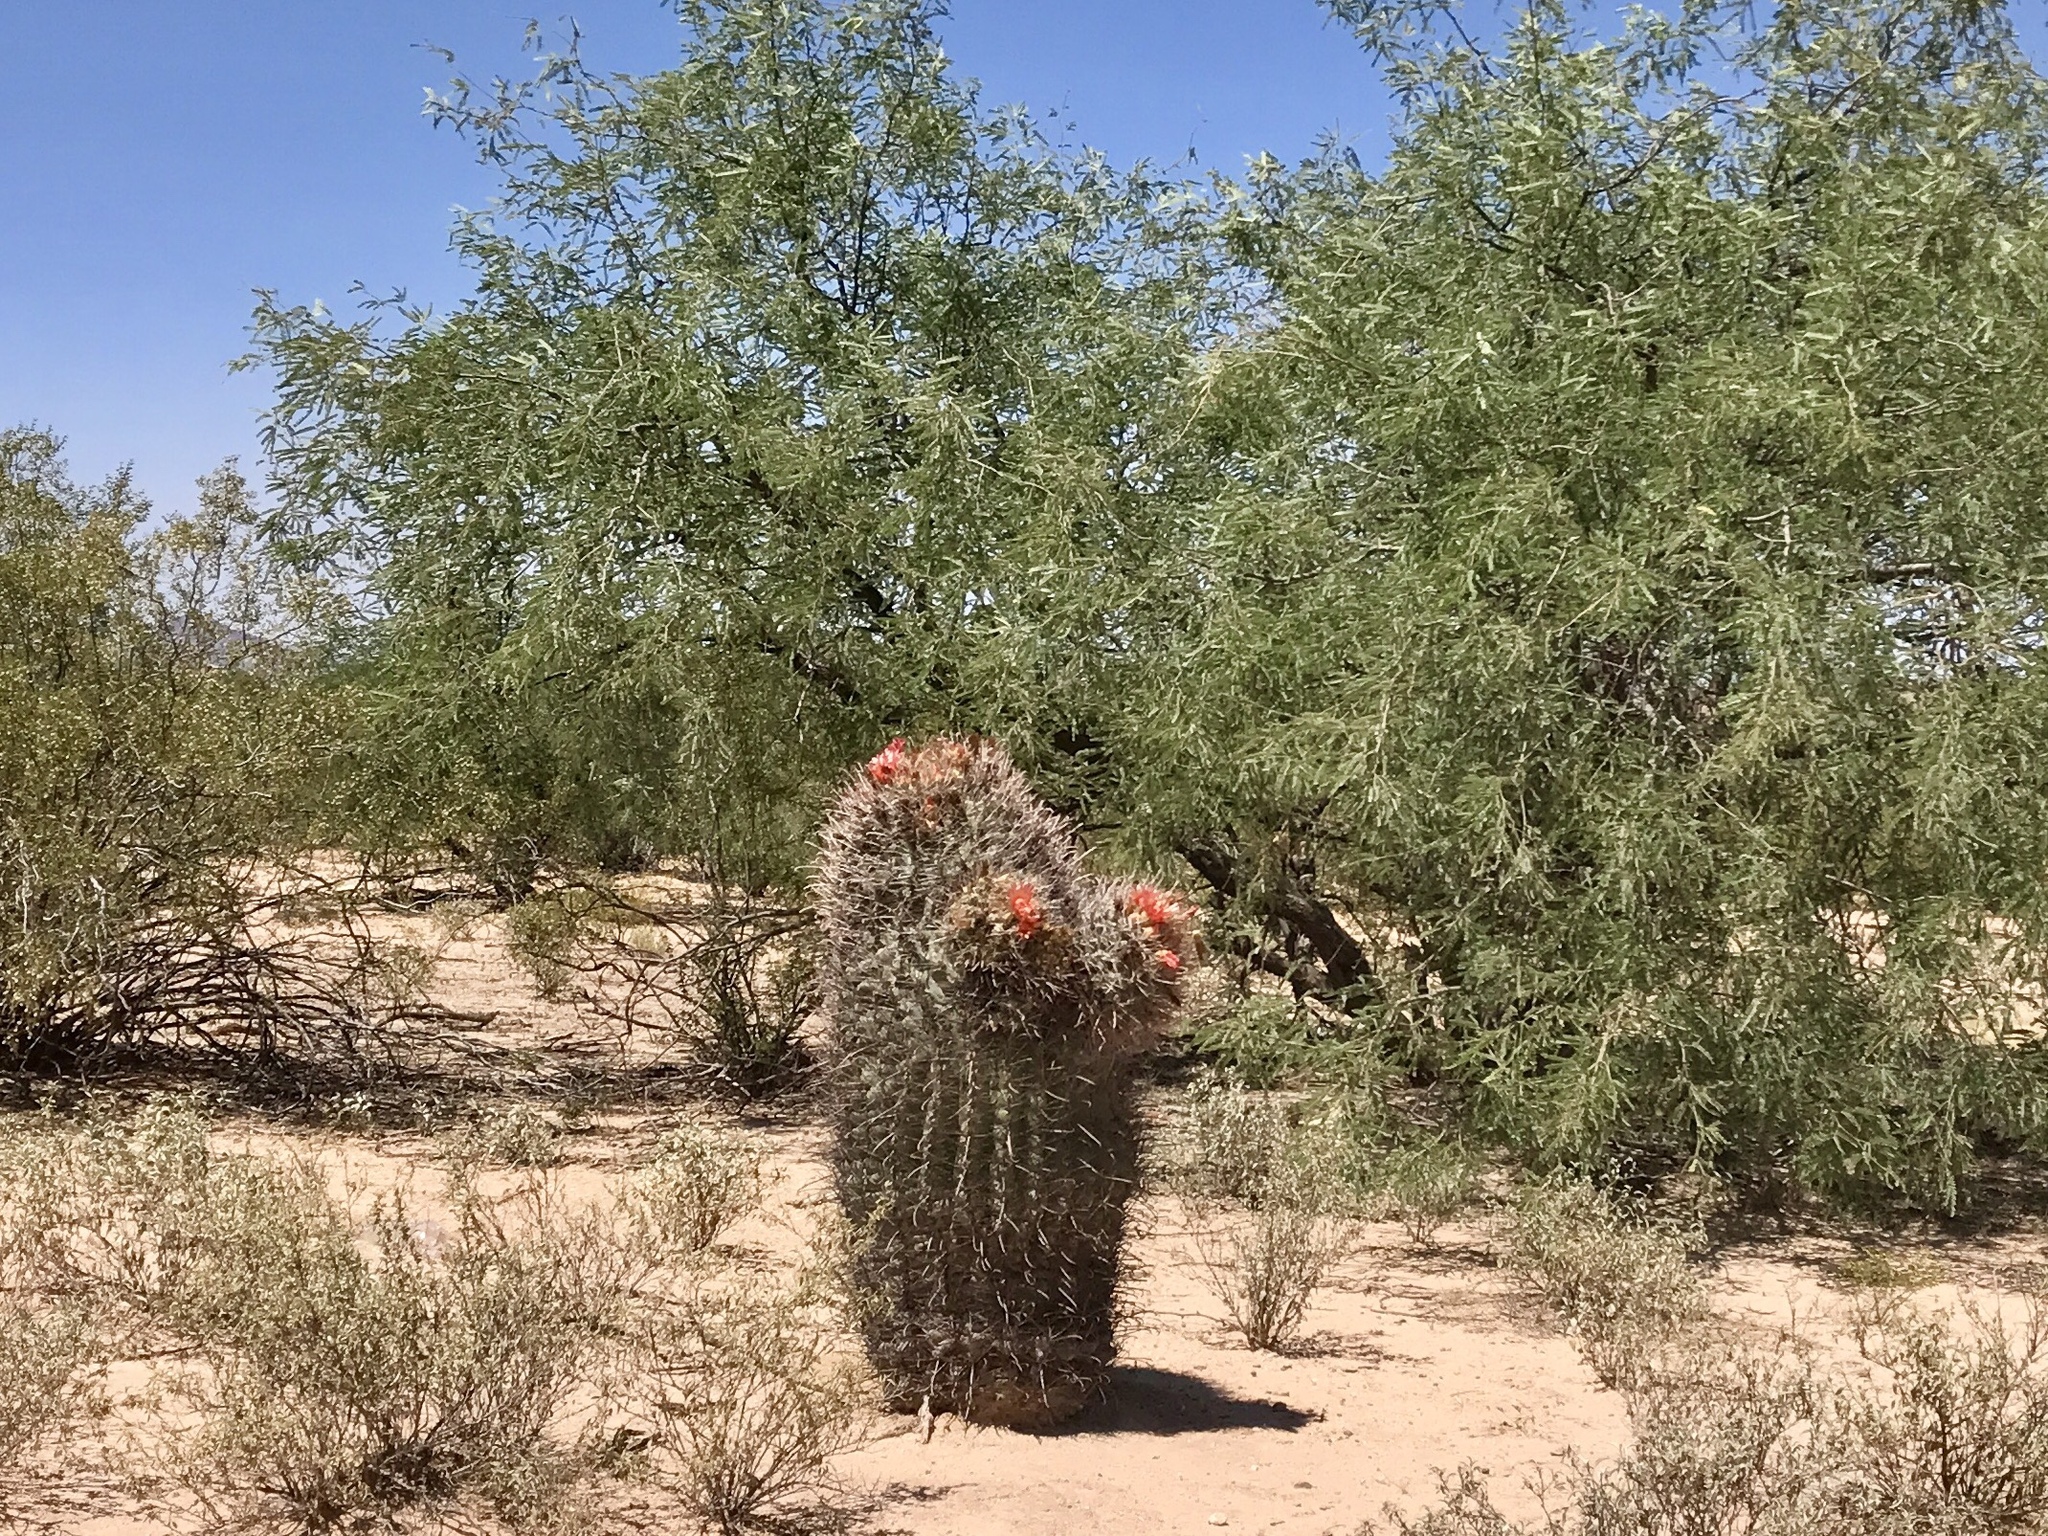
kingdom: Plantae
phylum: Tracheophyta
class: Magnoliopsida
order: Caryophyllales
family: Cactaceae
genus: Ferocactus
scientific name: Ferocactus wislizeni
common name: Candy barrel cactus
